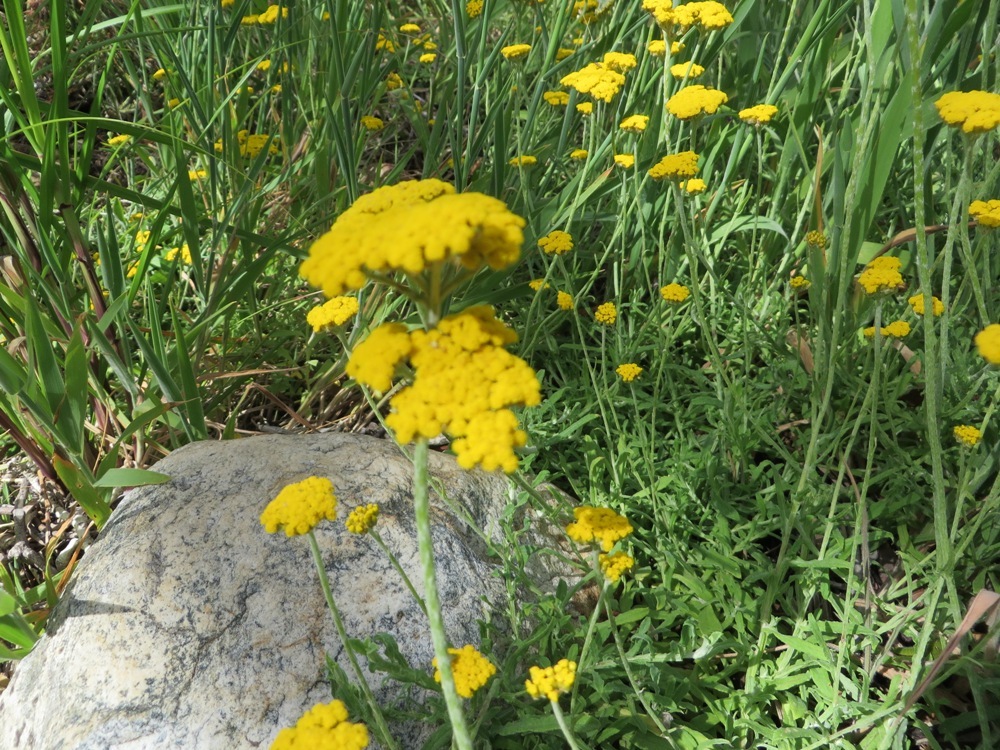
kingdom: Plantae
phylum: Tracheophyta
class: Magnoliopsida
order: Asterales
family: Asteraceae
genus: Helichrysum
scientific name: Helichrysum cymosum
